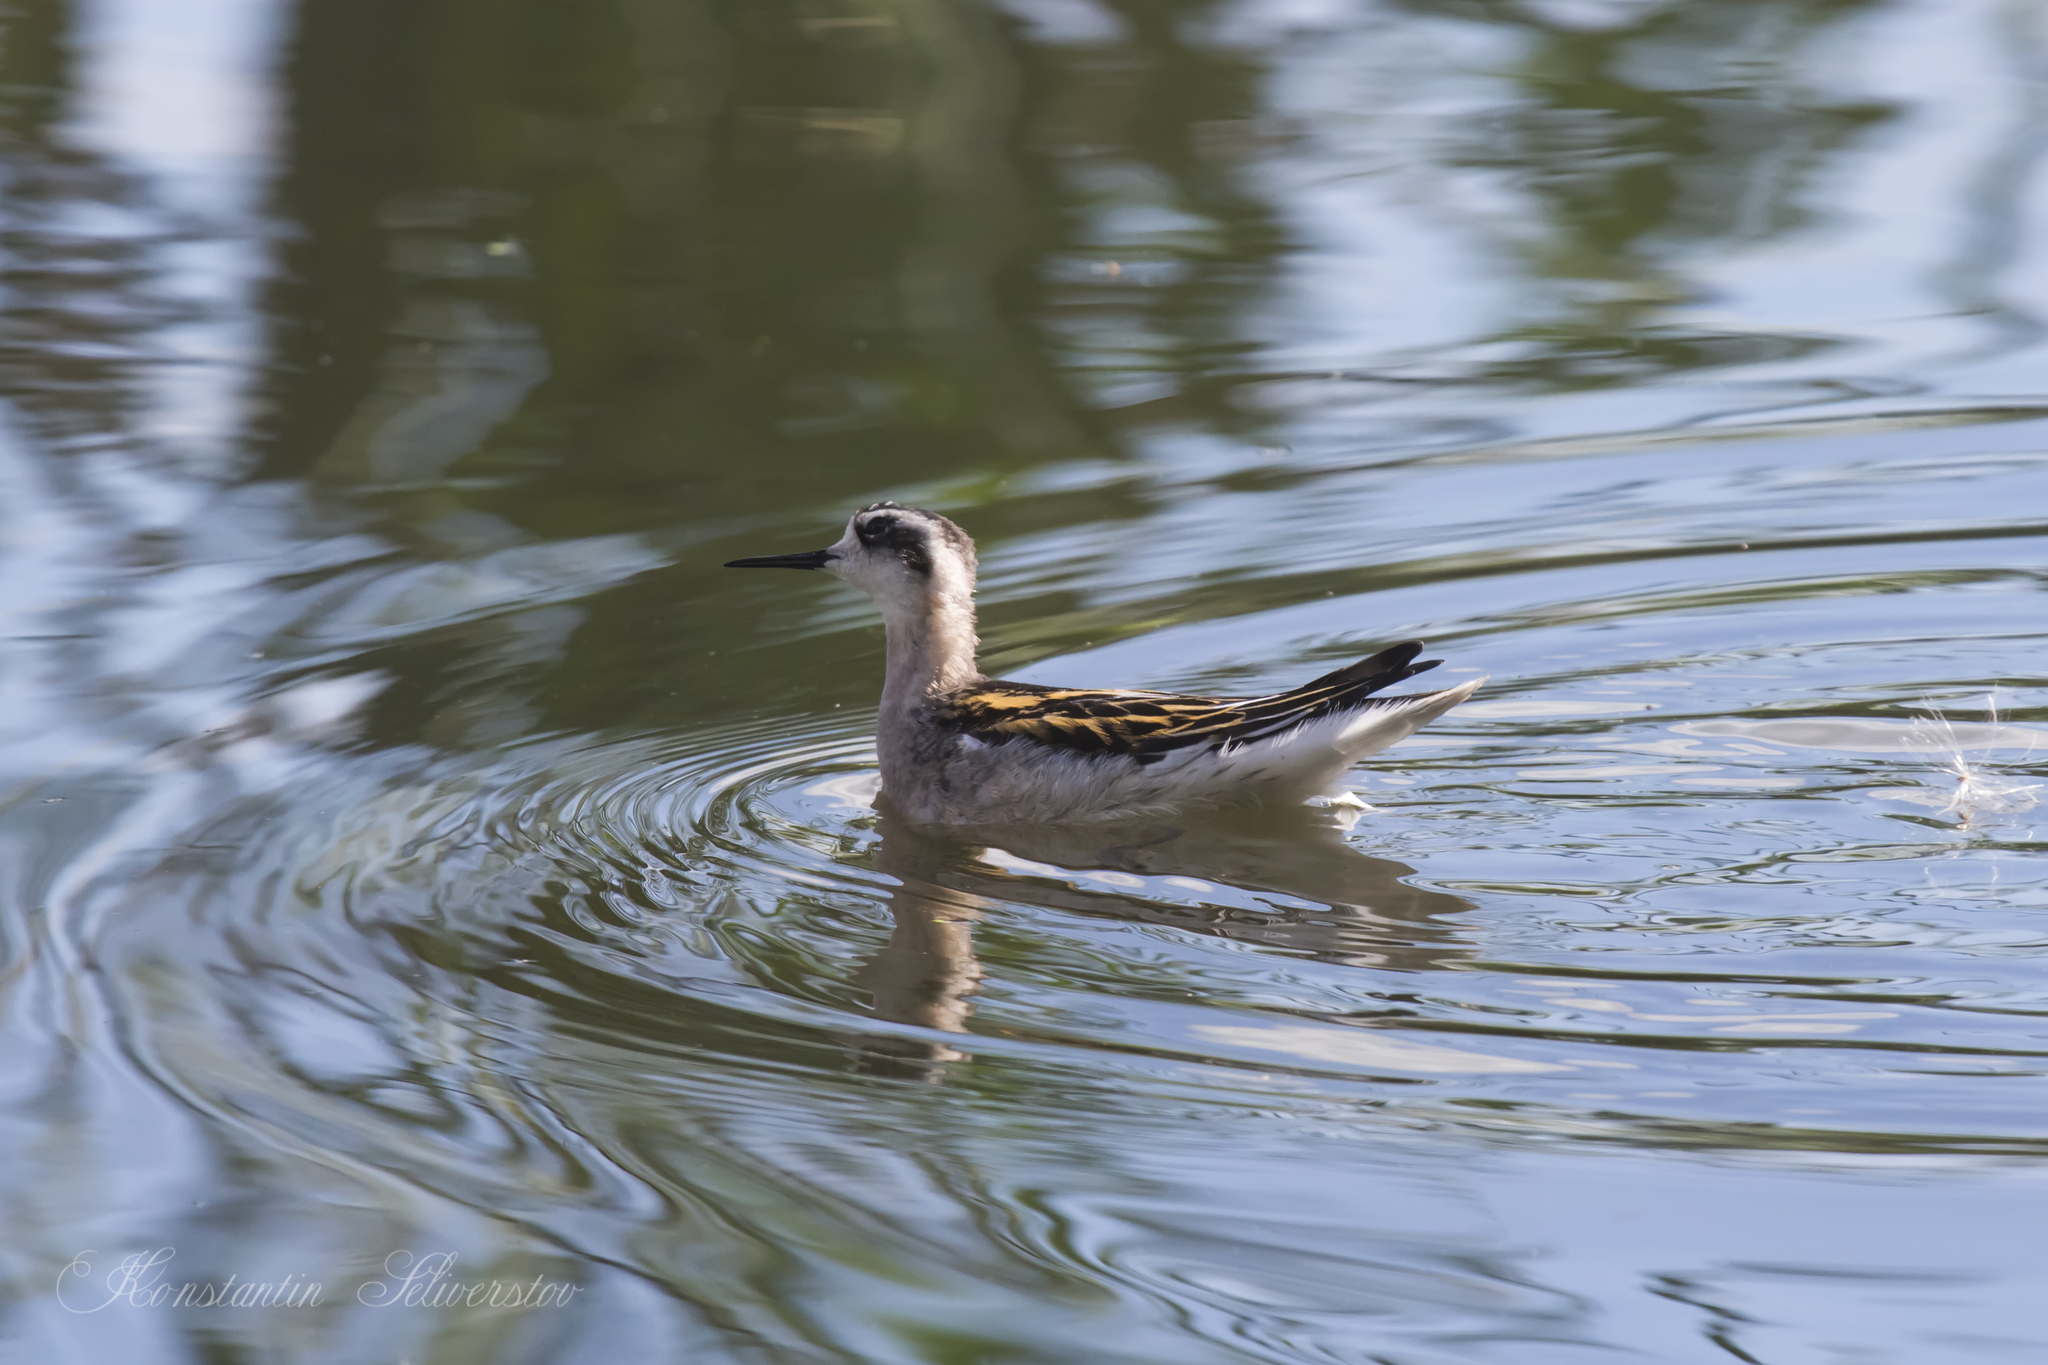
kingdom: Animalia
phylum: Chordata
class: Aves
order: Charadriiformes
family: Scolopacidae
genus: Phalaropus
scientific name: Phalaropus lobatus
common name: Red-necked phalarope
